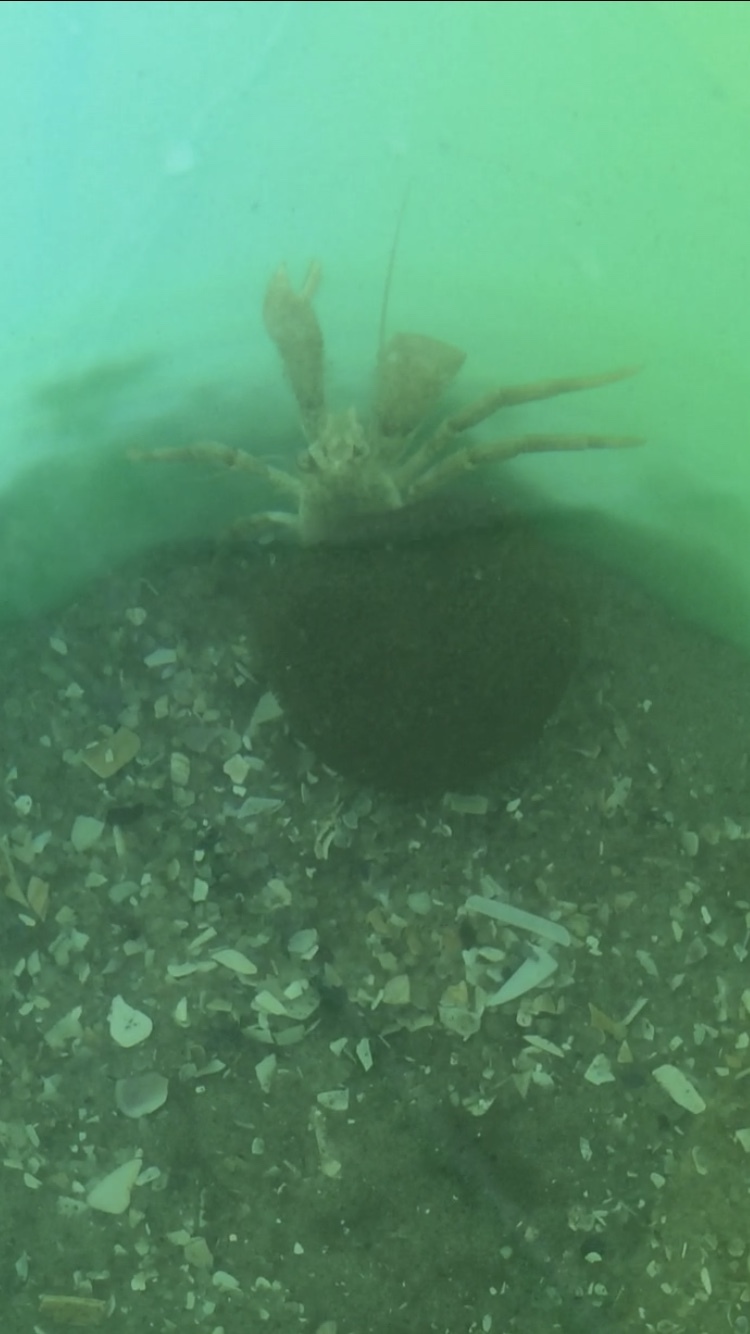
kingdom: Animalia
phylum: Arthropoda
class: Malacostraca
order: Decapoda
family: Paguridae
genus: Pagurus
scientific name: Pagurus pollicaris
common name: Flatclaw hermit
